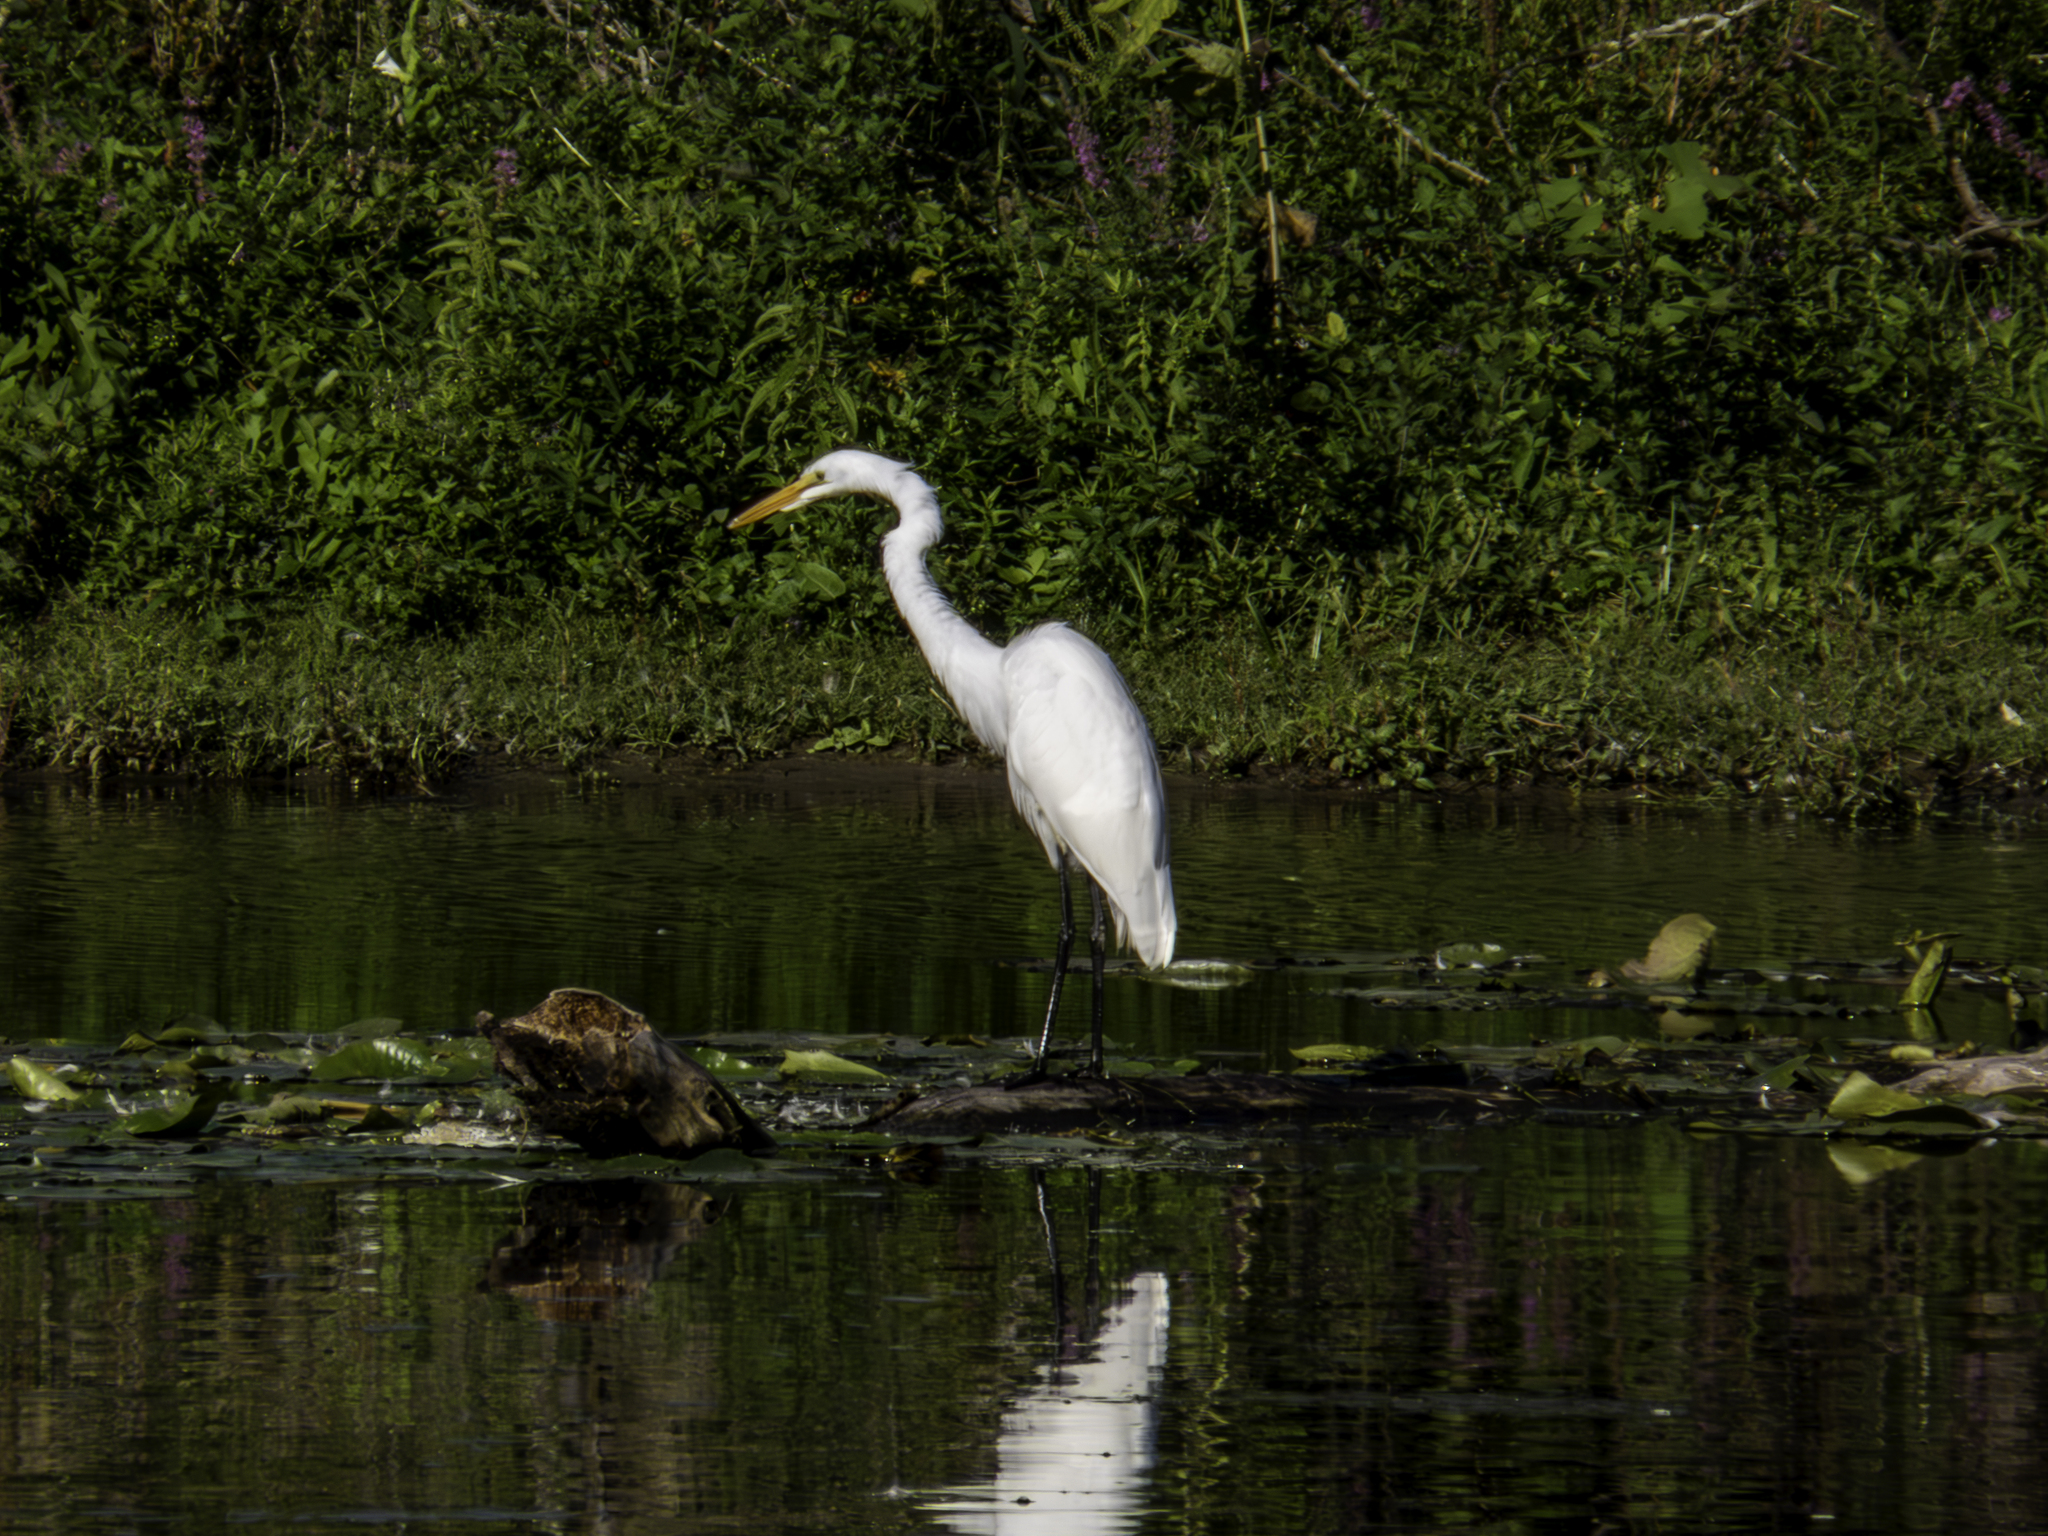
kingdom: Animalia
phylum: Chordata
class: Aves
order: Pelecaniformes
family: Ardeidae
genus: Ardea
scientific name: Ardea alba
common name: Great egret
